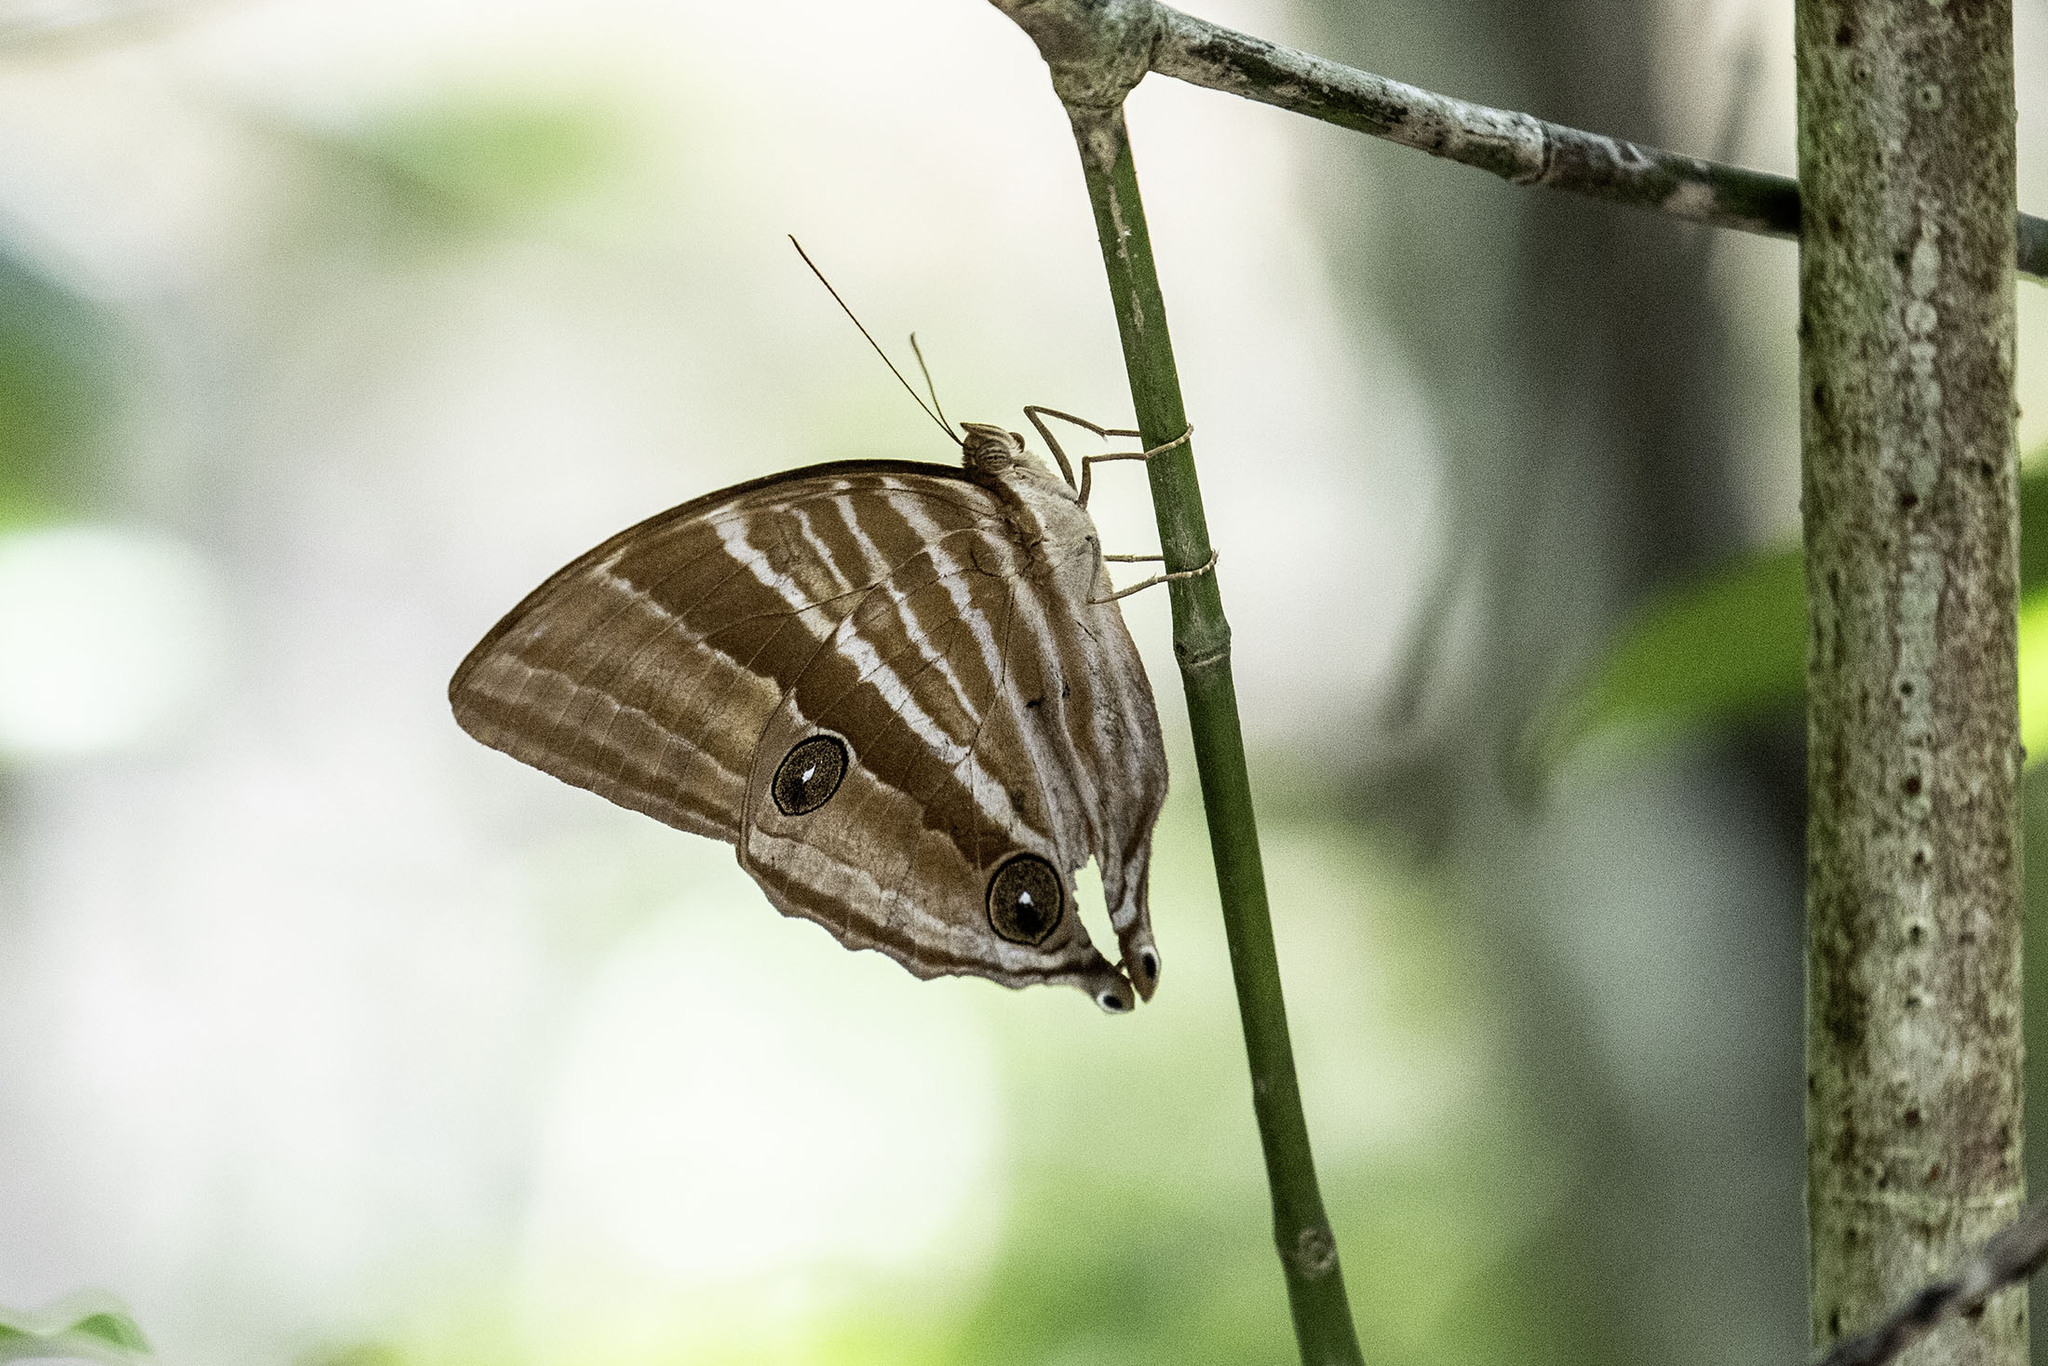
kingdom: Animalia
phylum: Arthropoda
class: Insecta
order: Lepidoptera
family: Nymphalidae
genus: Amathusia
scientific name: Amathusia phidippus
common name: Palm king
